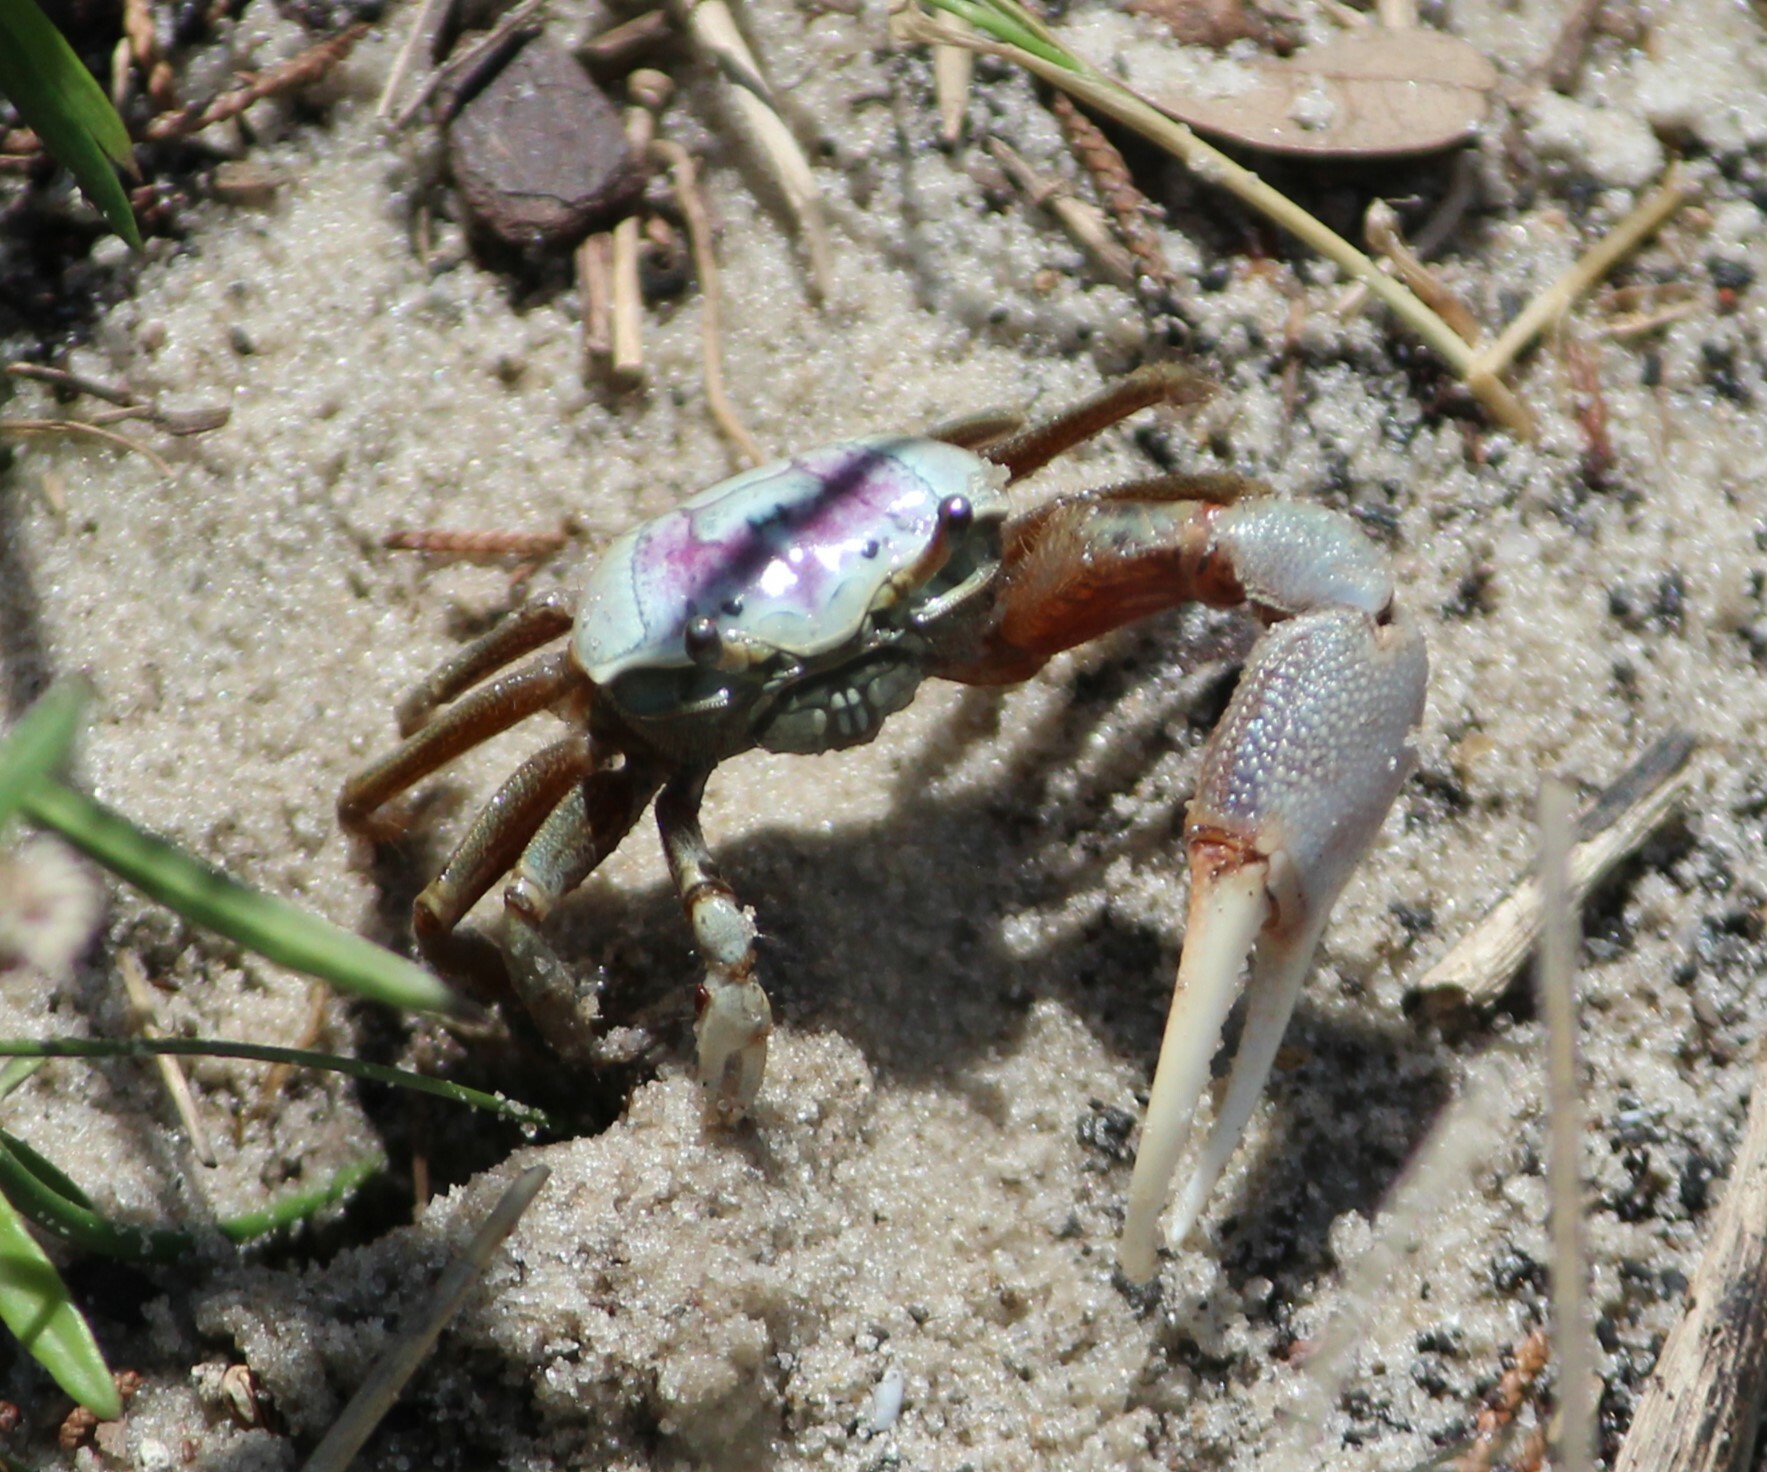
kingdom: Animalia
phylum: Arthropoda
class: Malacostraca
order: Decapoda
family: Ocypodidae
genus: Leptuca
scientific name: Leptuca pugilator
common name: Atlantic sand fiddler crab
